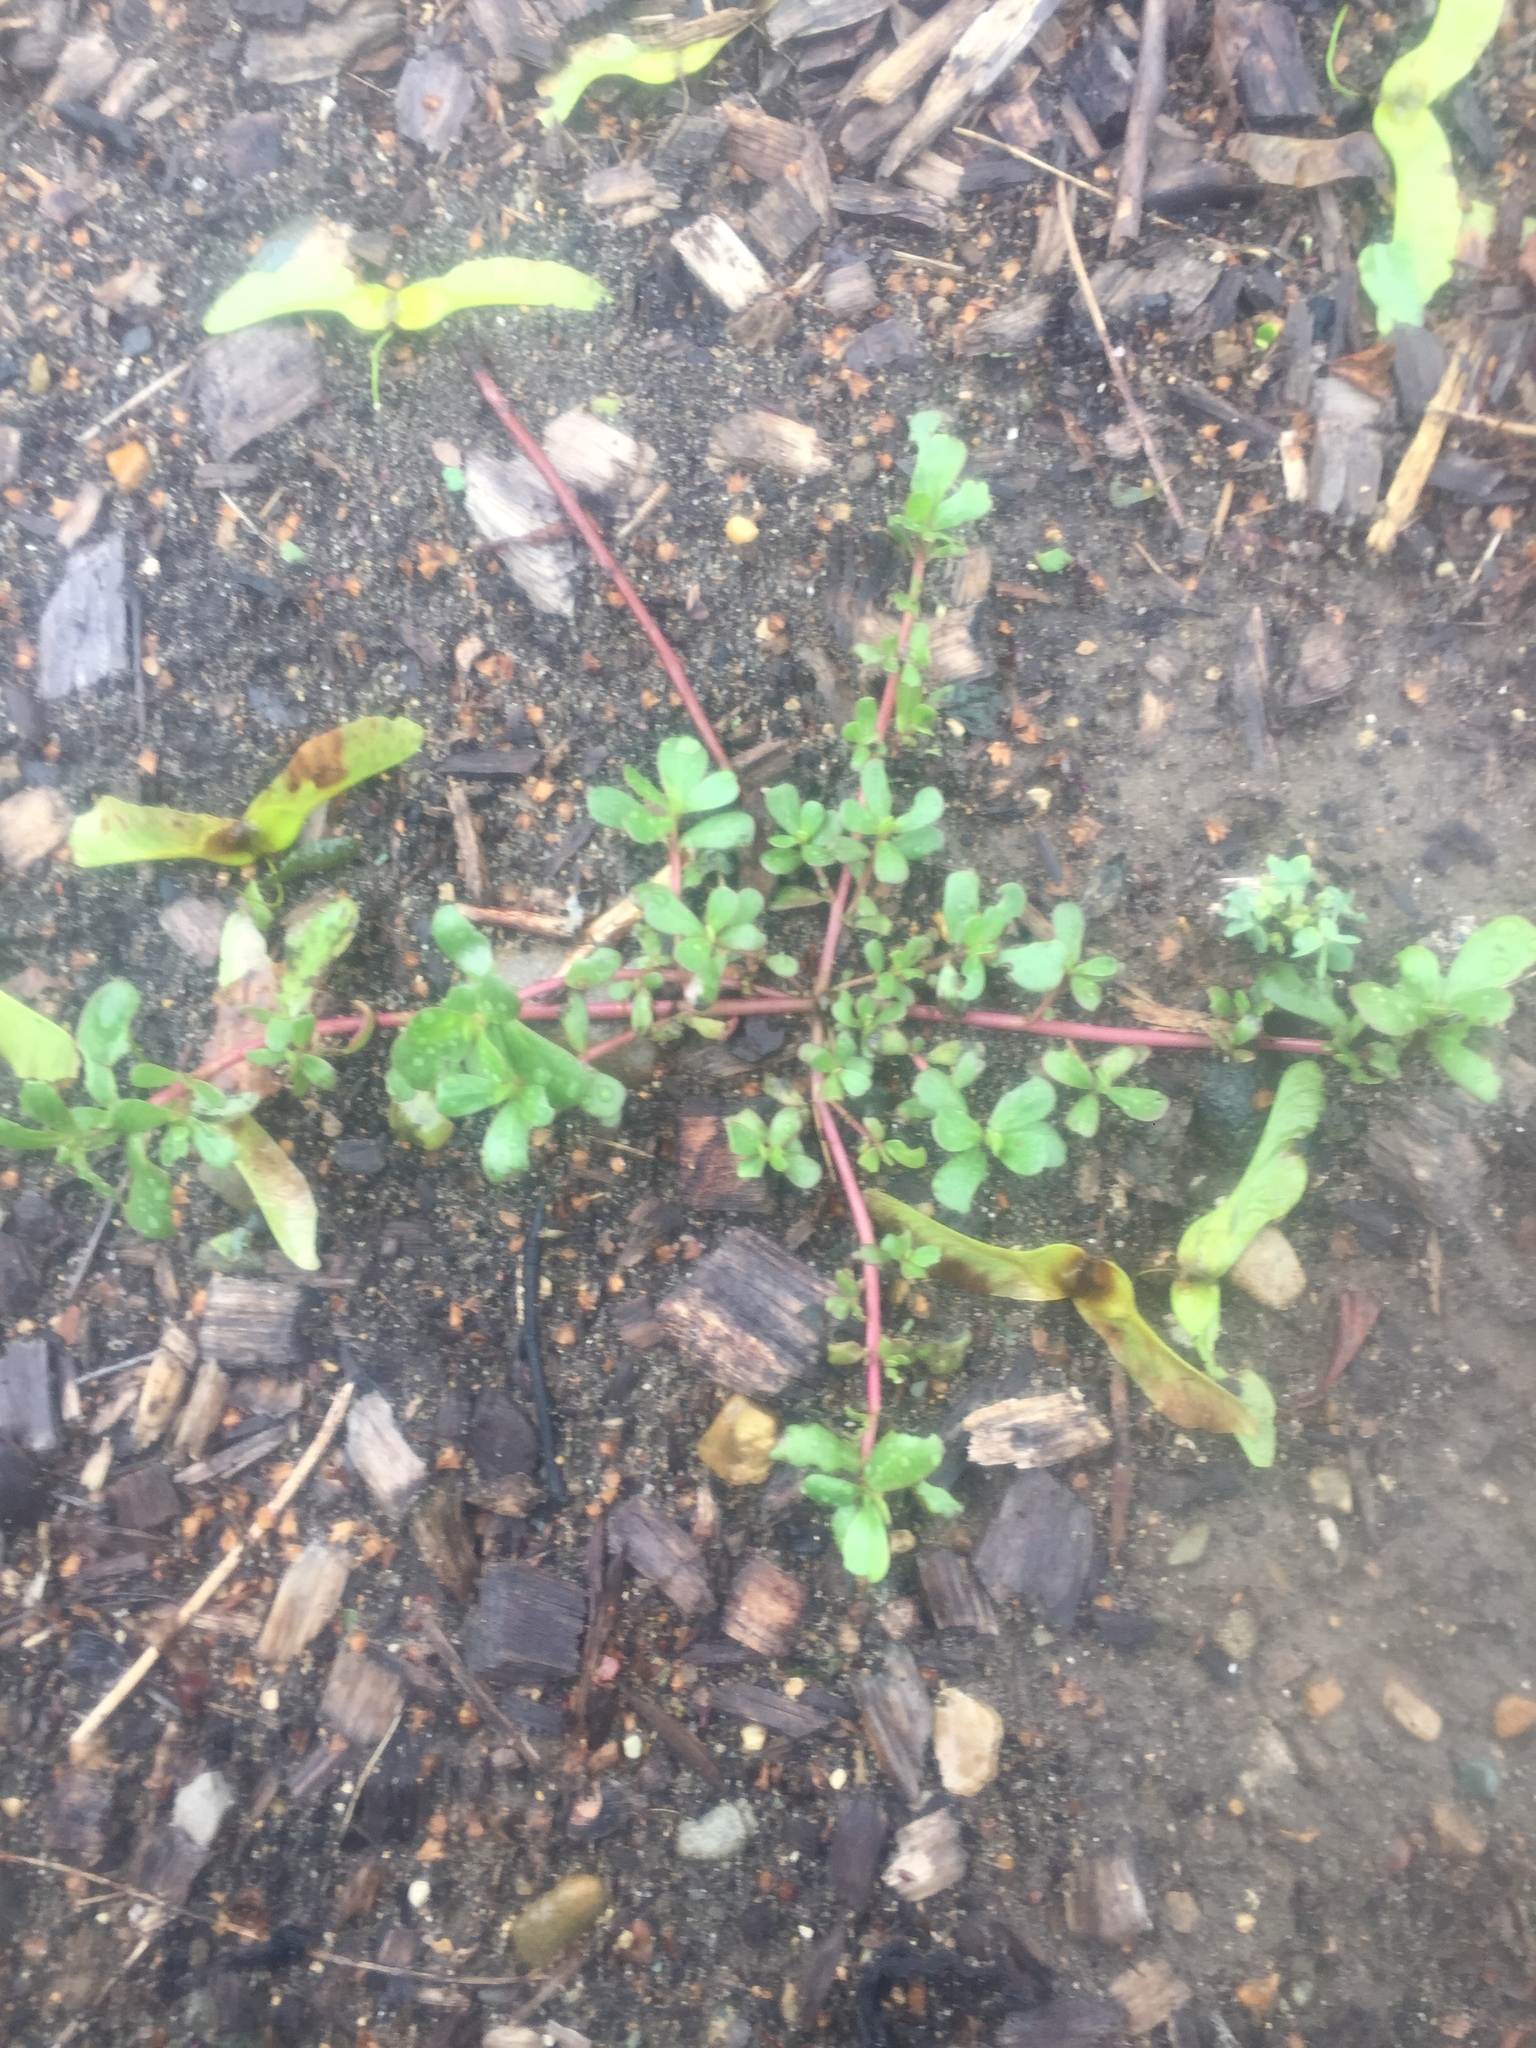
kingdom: Plantae
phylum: Tracheophyta
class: Magnoliopsida
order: Caryophyllales
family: Portulacaceae
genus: Portulaca
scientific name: Portulaca oleracea
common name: Common purslane
